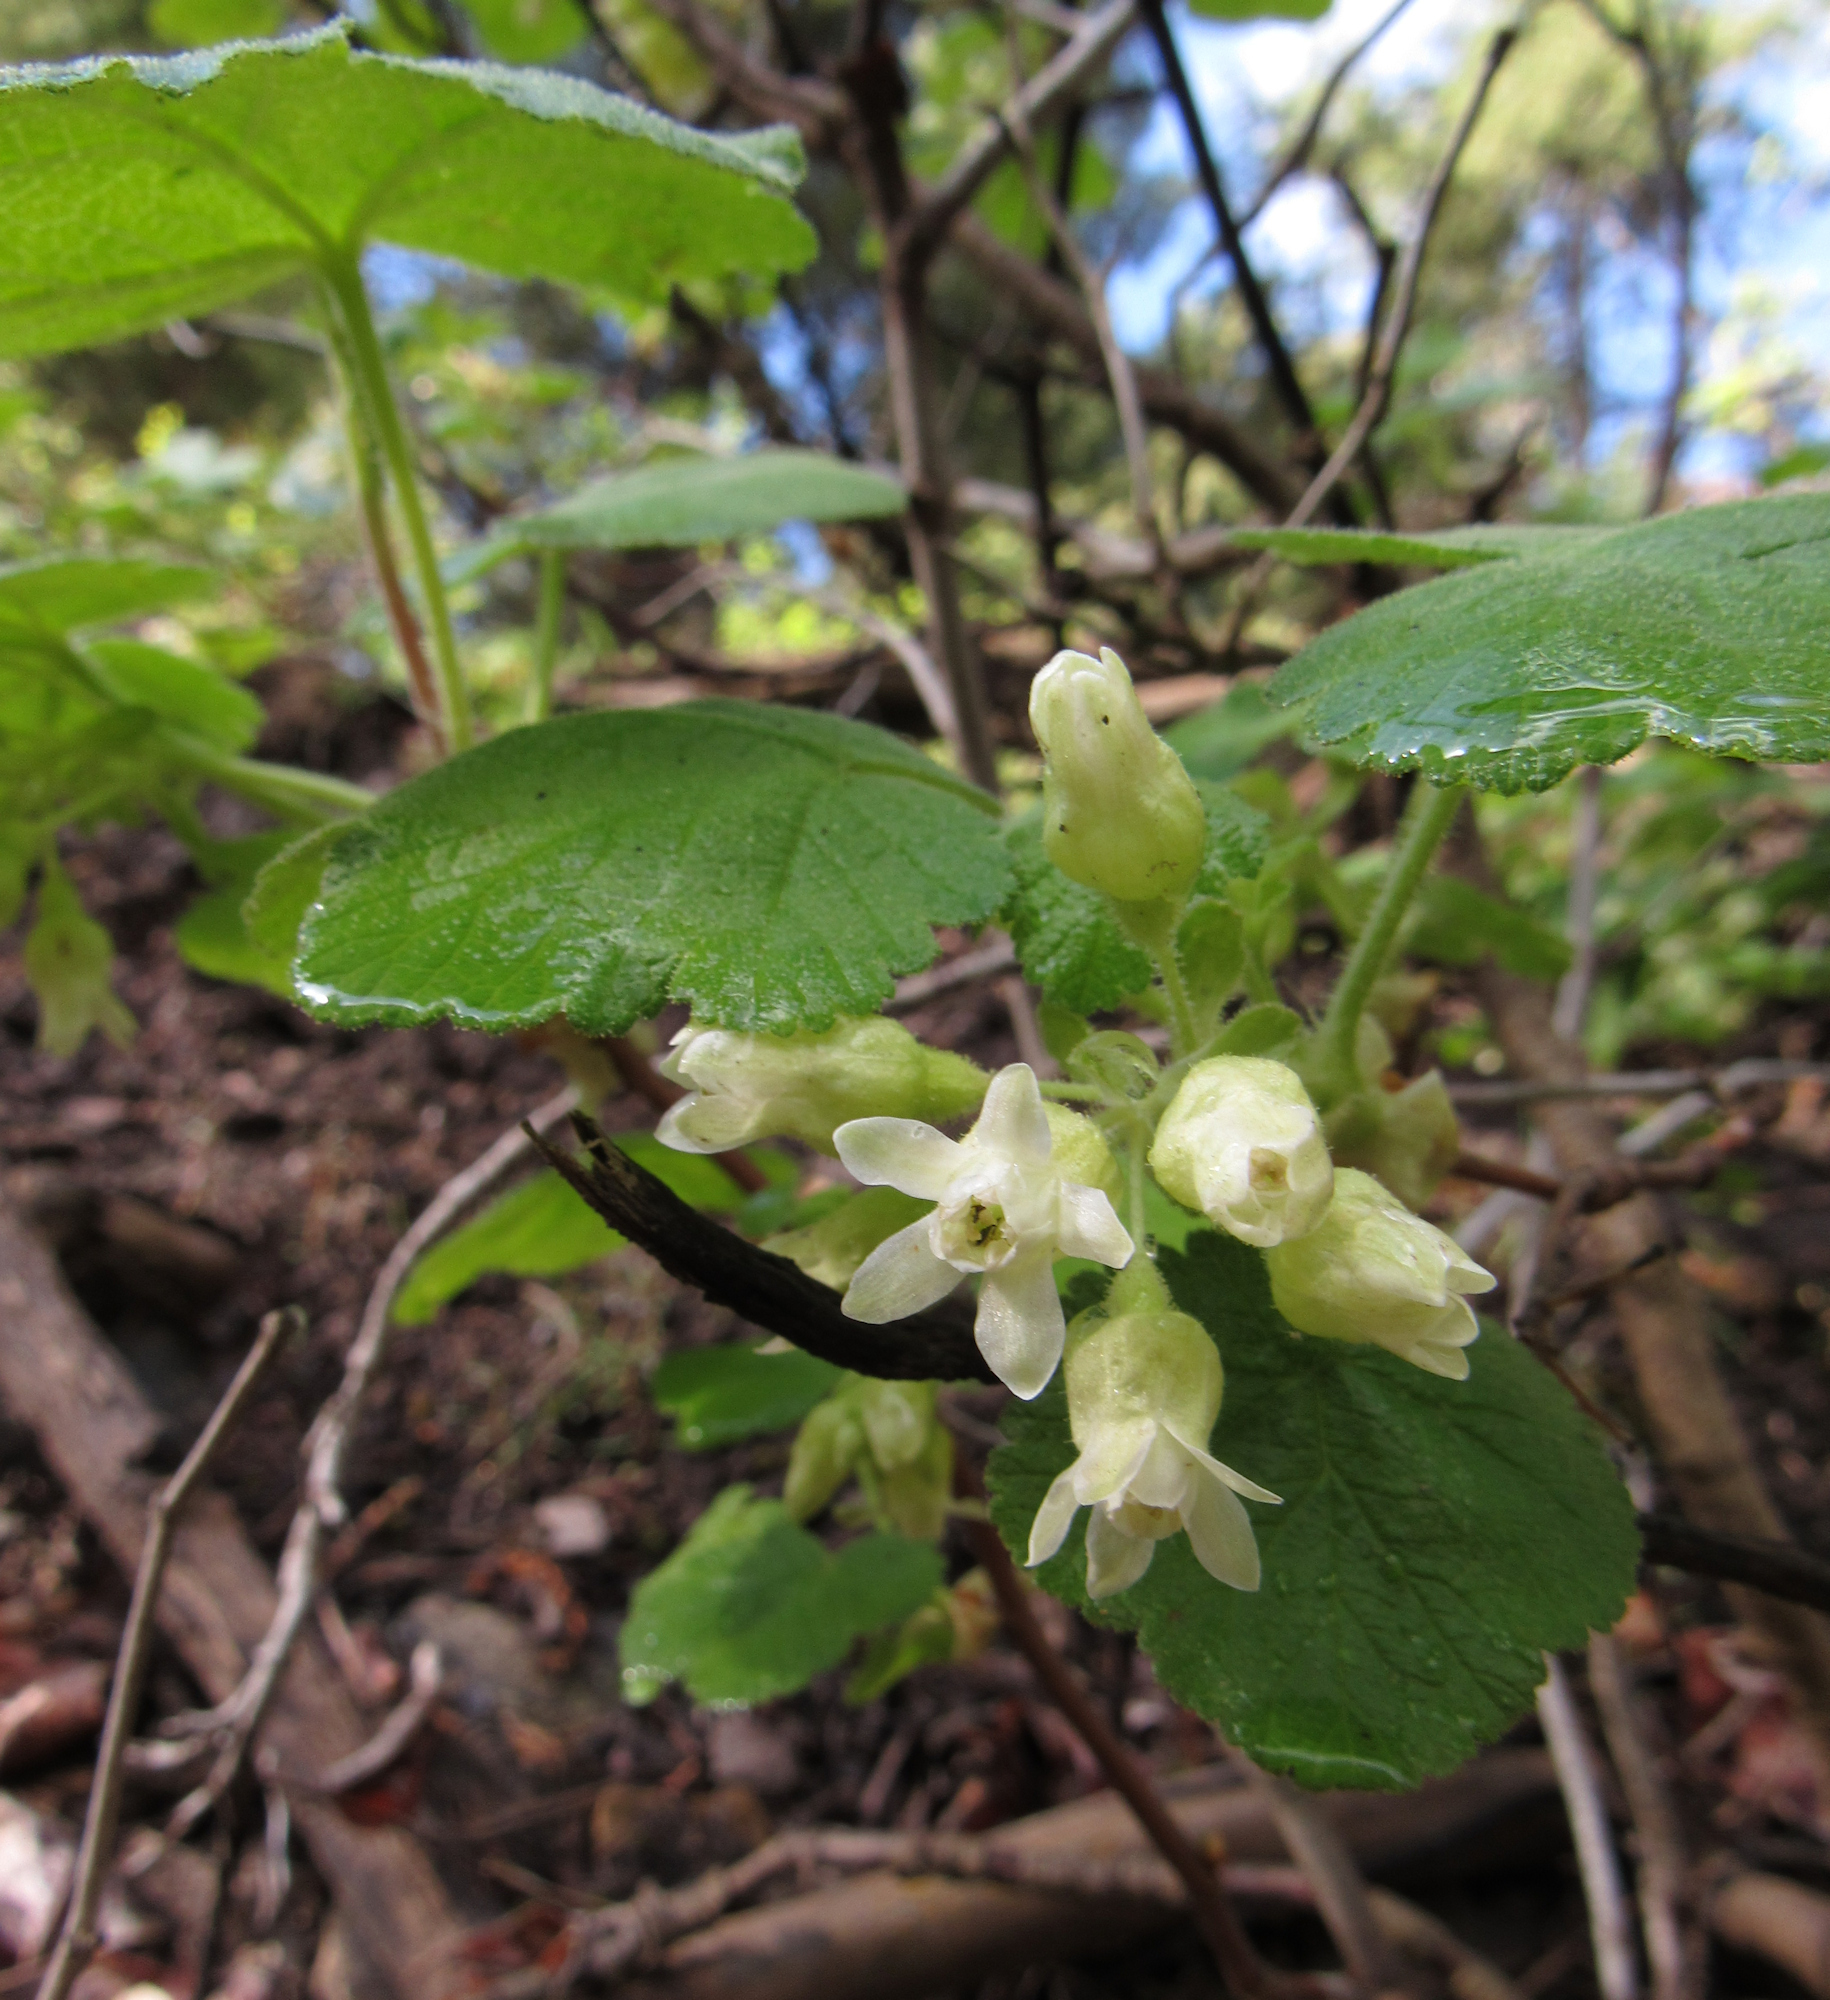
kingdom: Plantae
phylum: Tracheophyta
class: Magnoliopsida
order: Saxifragales
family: Grossulariaceae
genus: Ribes
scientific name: Ribes viscosissimum
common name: Sticky currant
